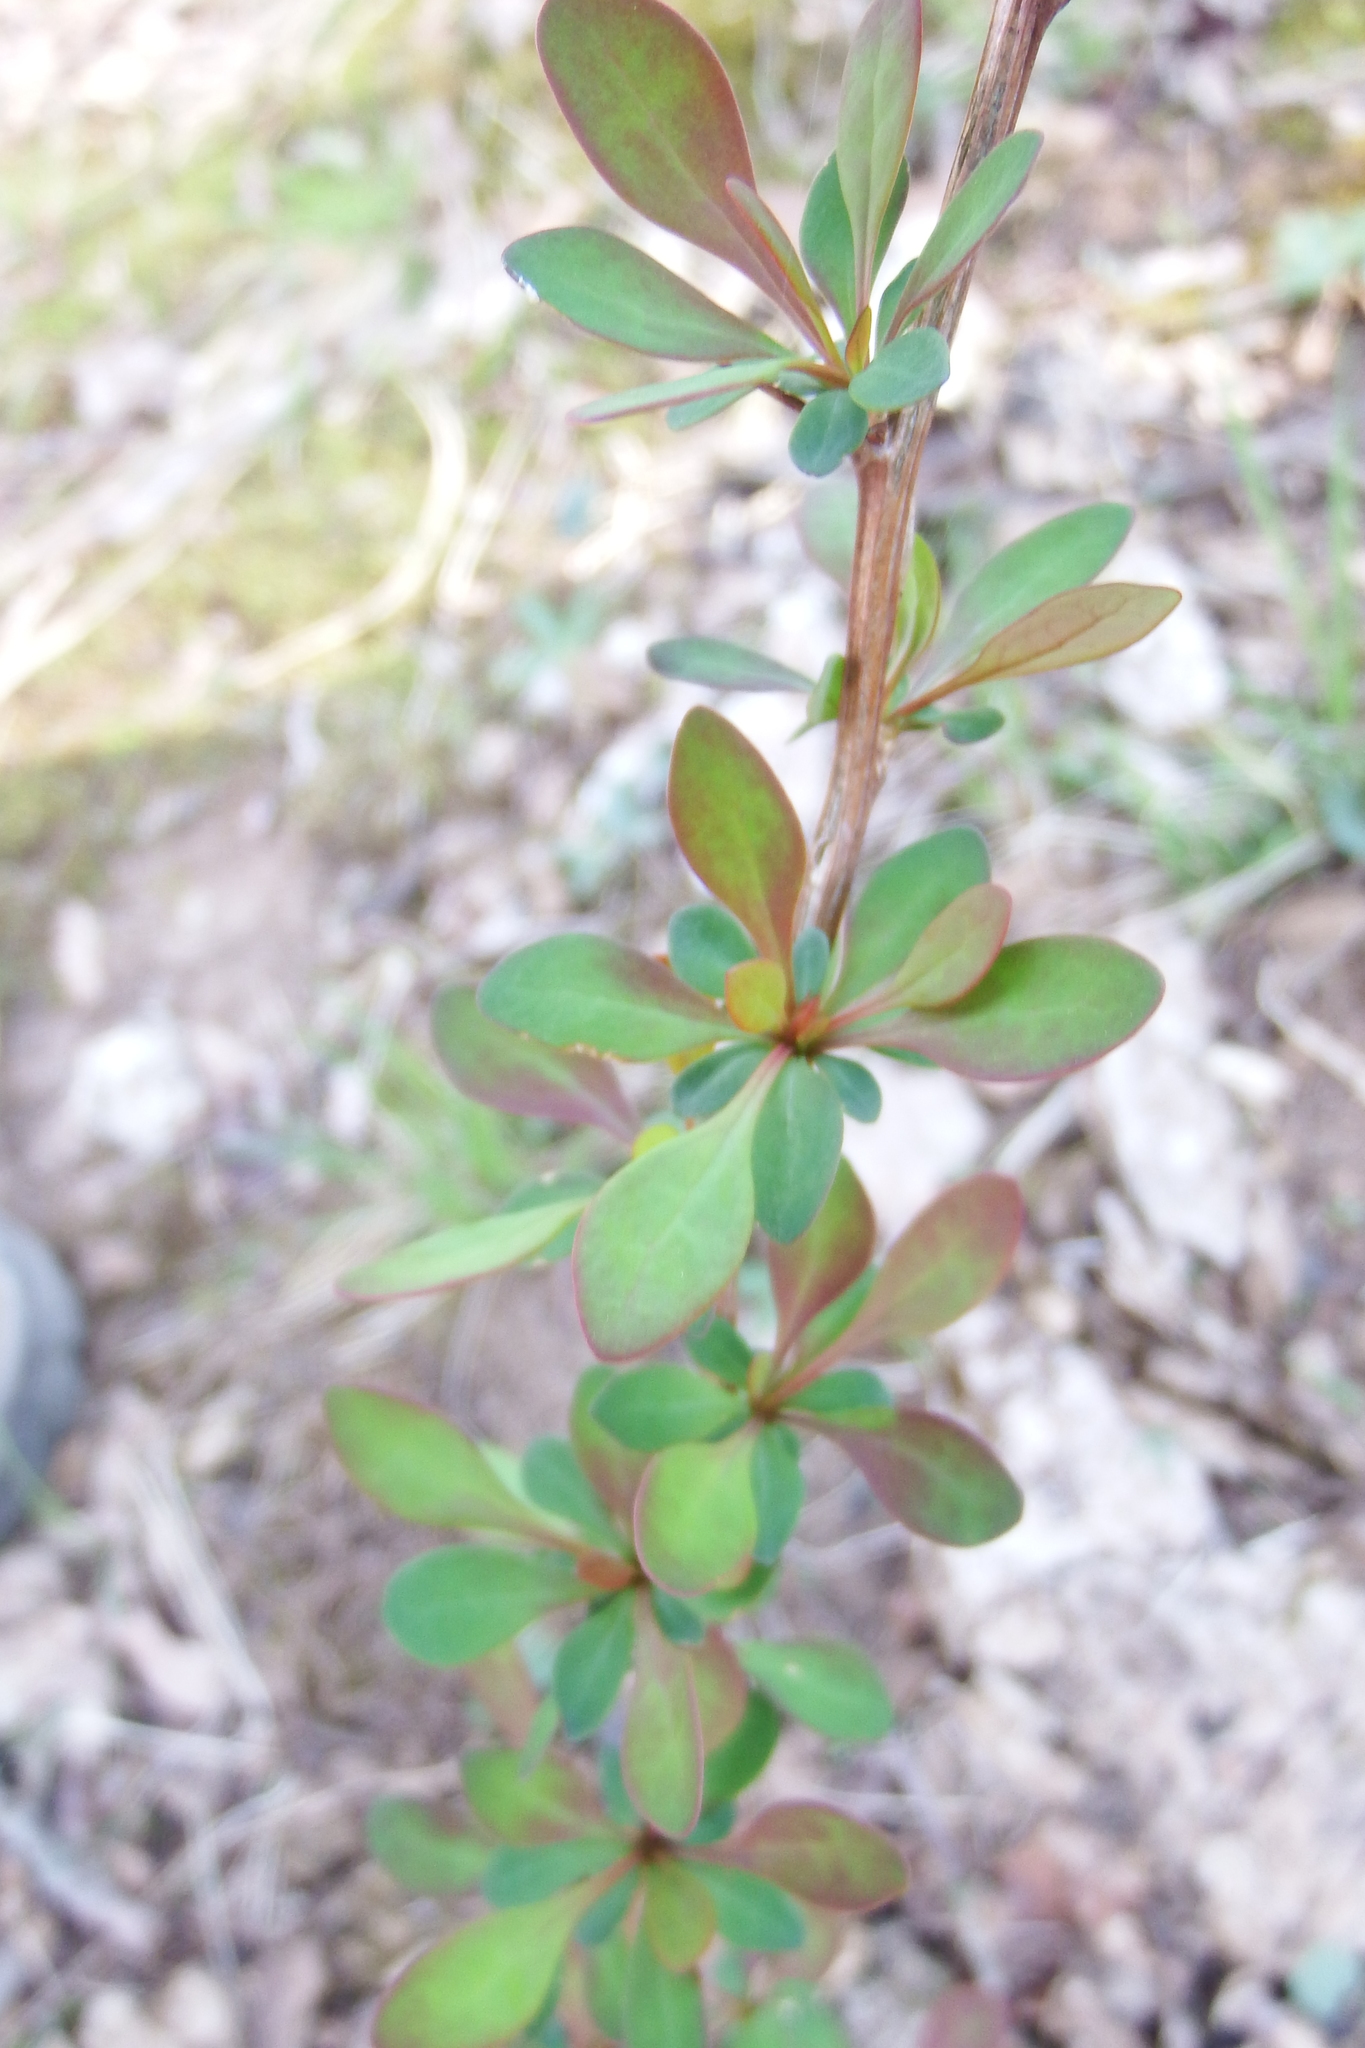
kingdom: Plantae
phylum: Tracheophyta
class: Magnoliopsida
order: Ranunculales
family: Berberidaceae
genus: Berberis
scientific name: Berberis thunbergii
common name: Japanese barberry
